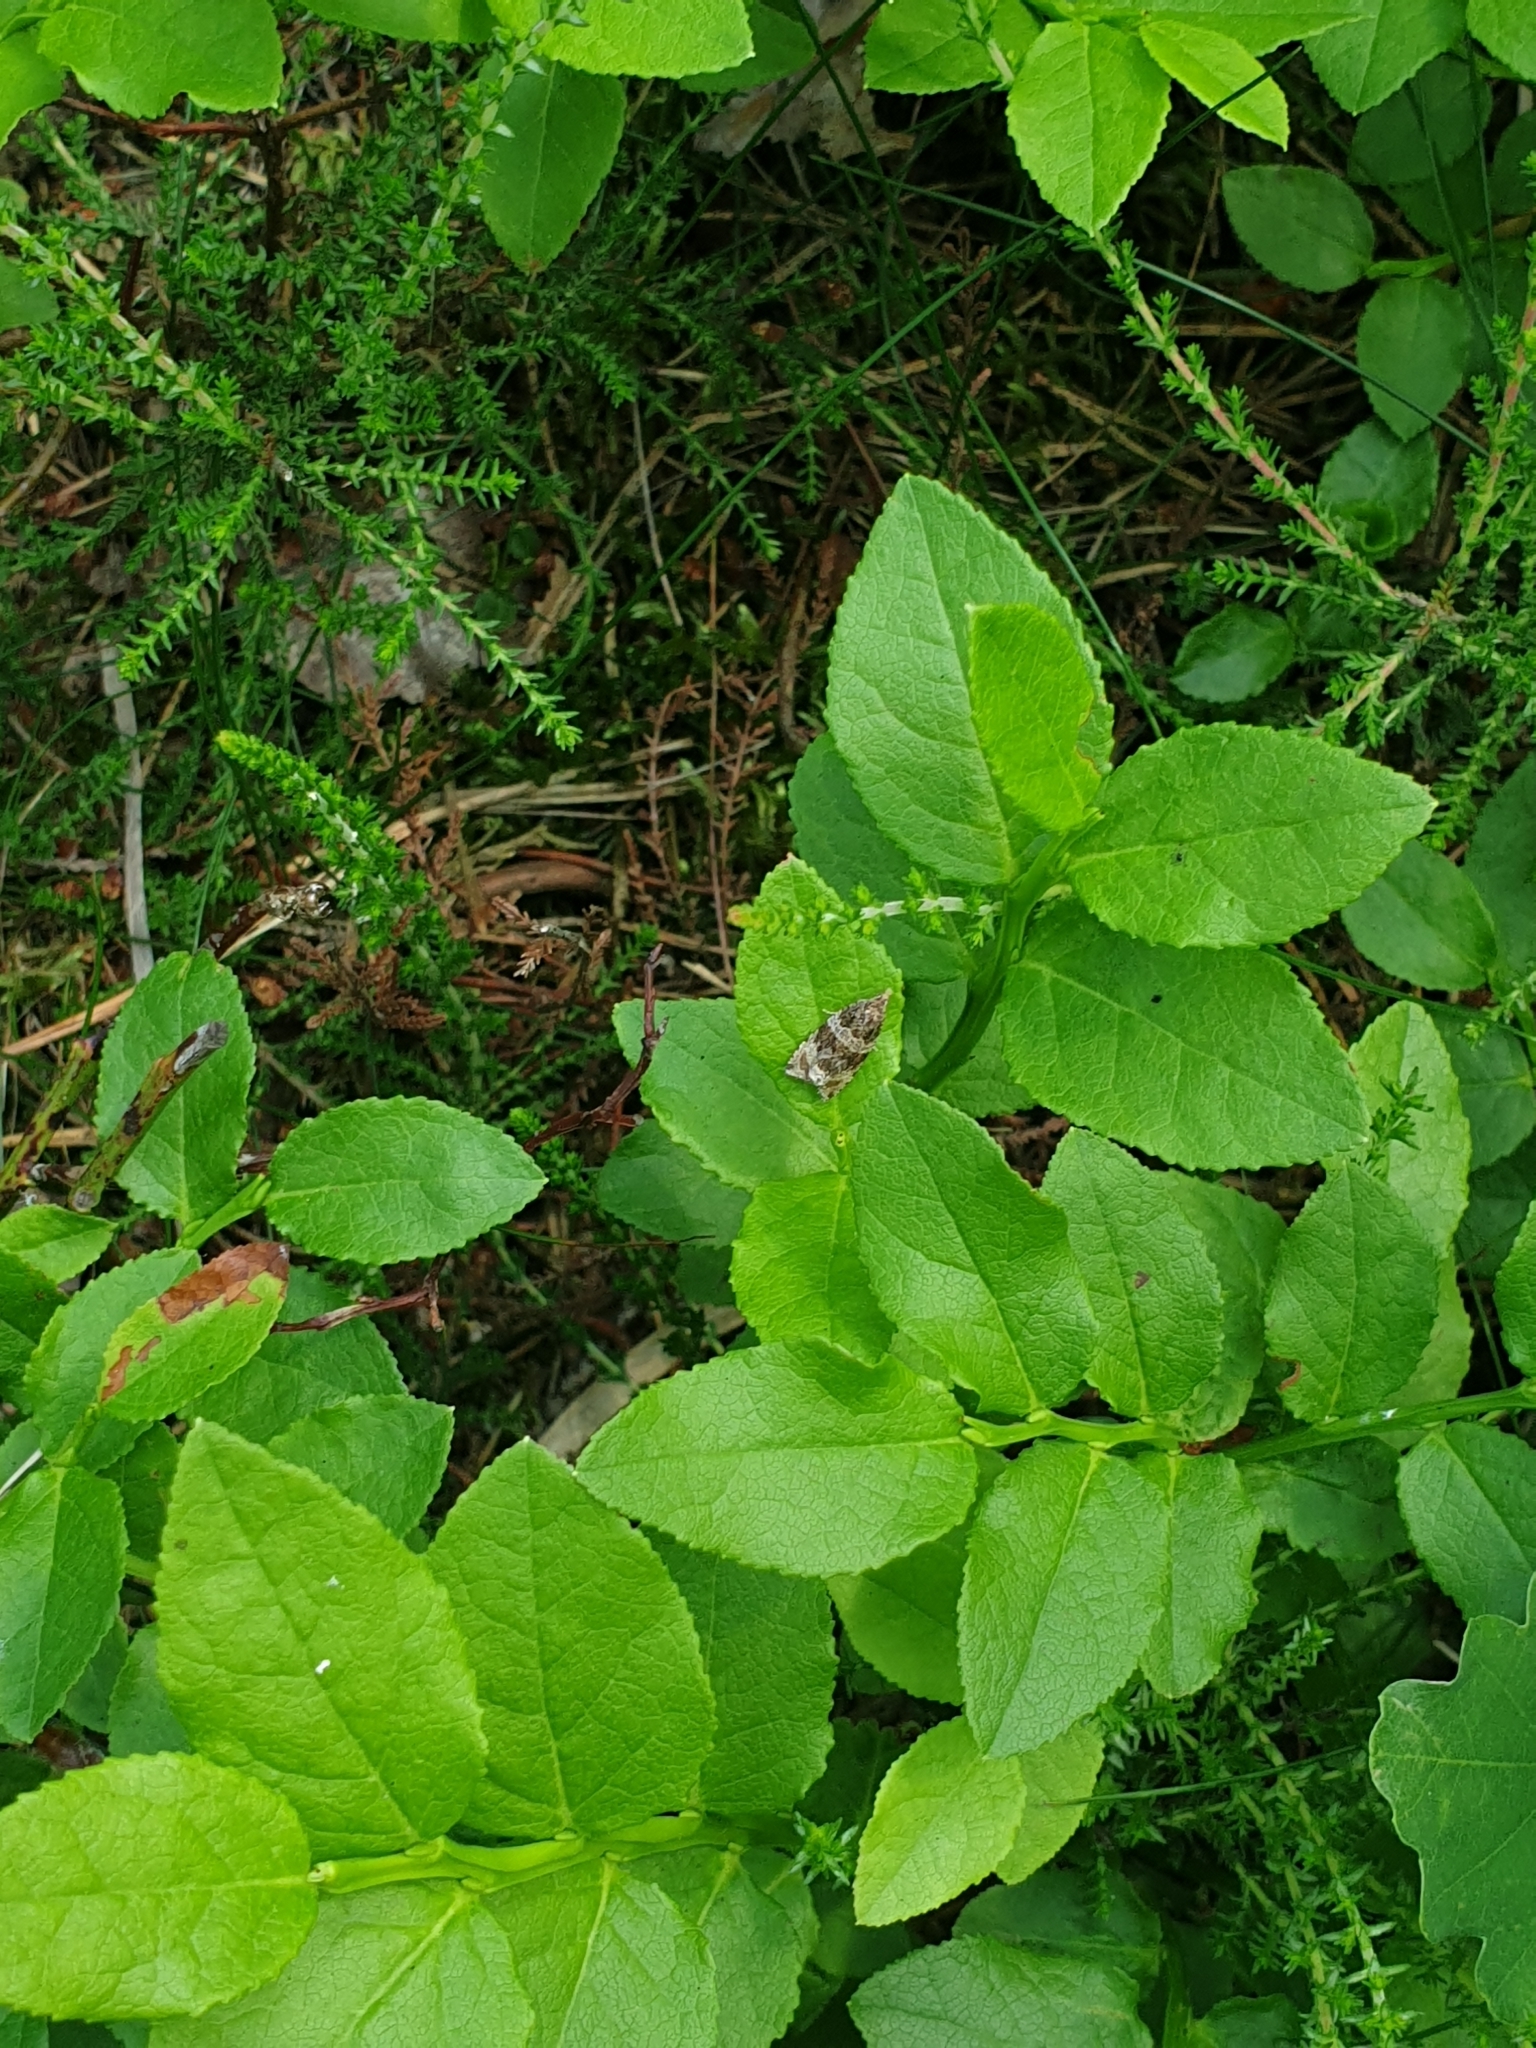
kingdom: Animalia
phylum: Arthropoda
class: Insecta
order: Lepidoptera
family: Tortricidae
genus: Syricoris
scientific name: Syricoris lacunana
